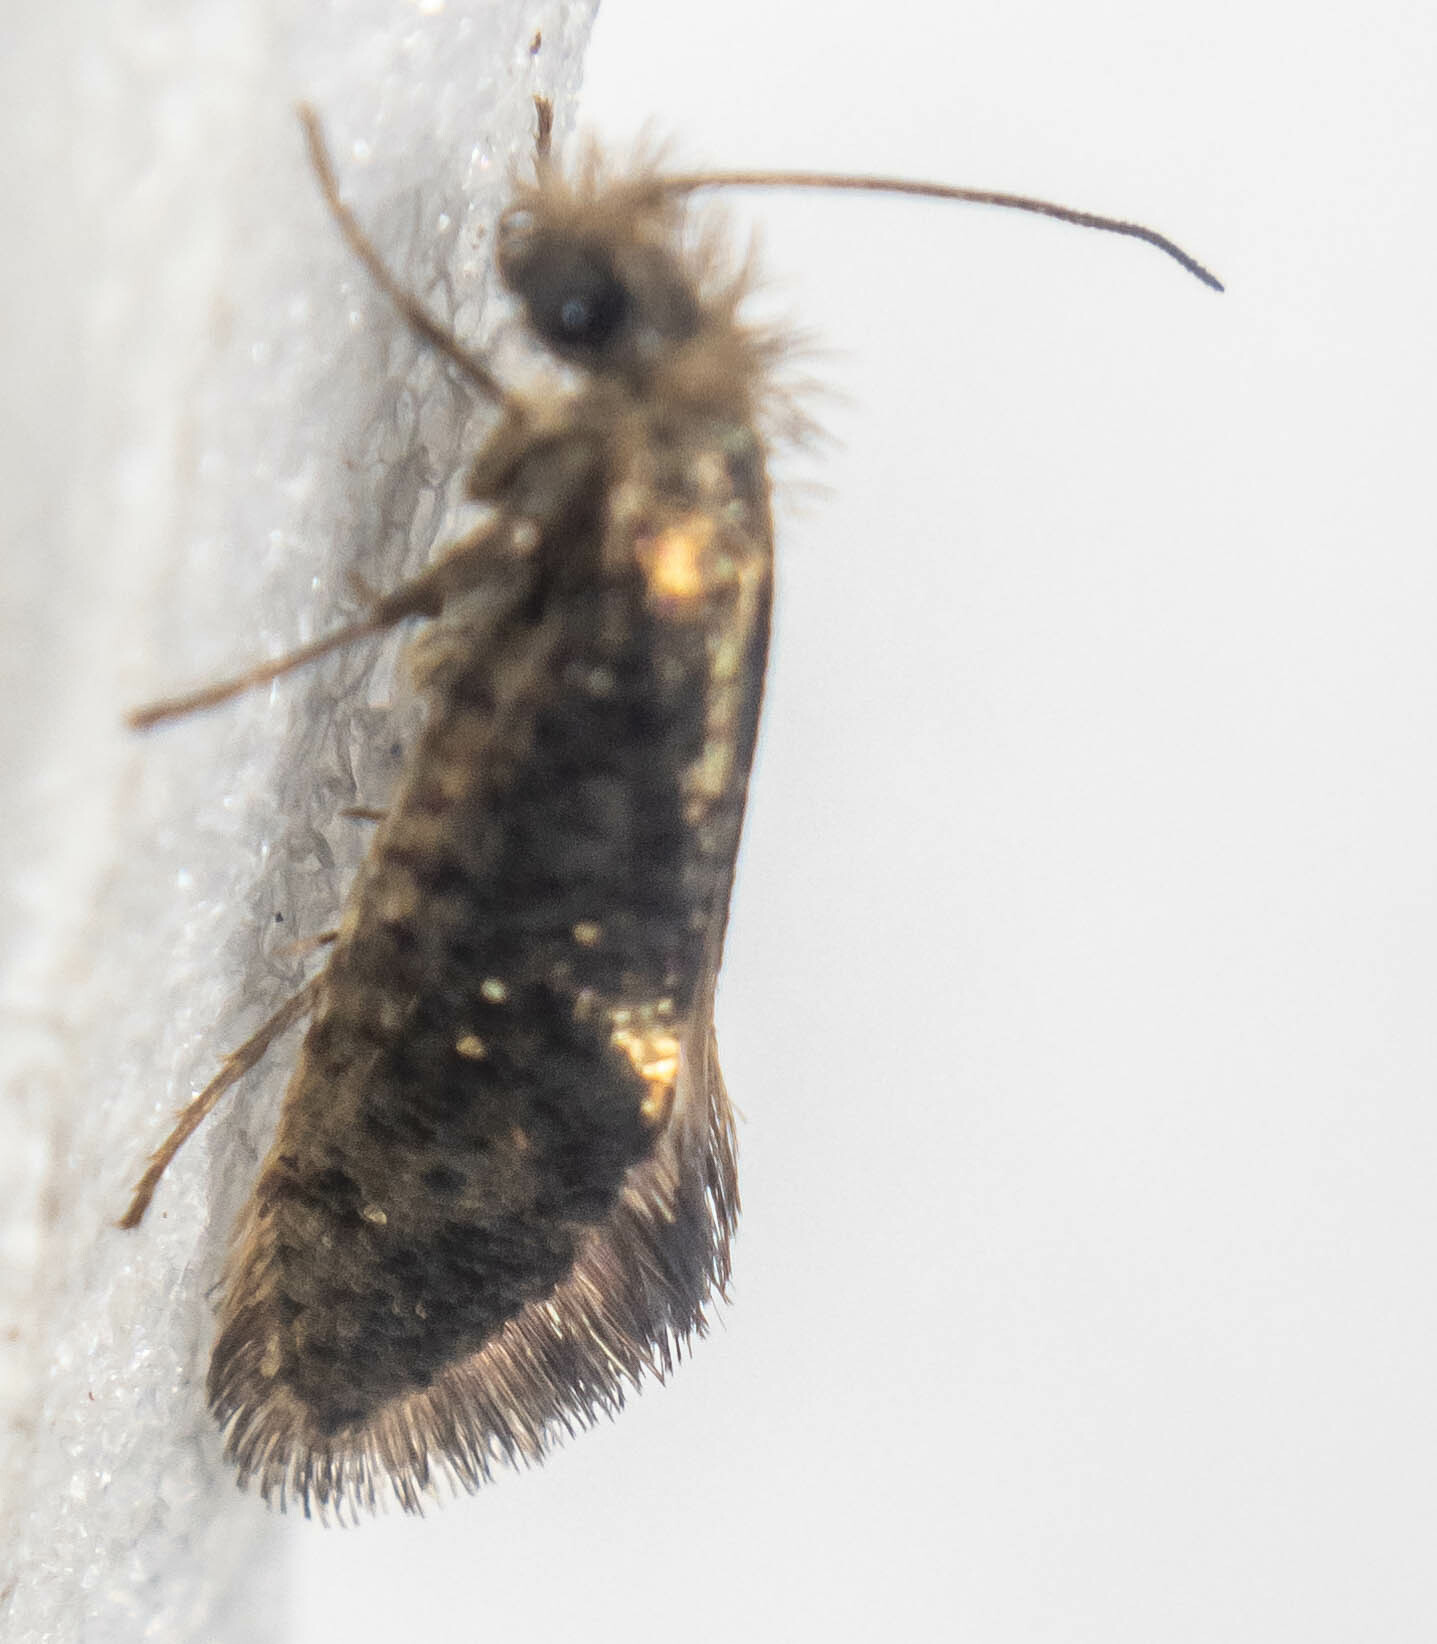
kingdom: Animalia
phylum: Arthropoda
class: Insecta
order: Lepidoptera
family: Eriocraniidae
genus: Dyseriocrania
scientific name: Dyseriocrania subpurpurella
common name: Common oak purple
